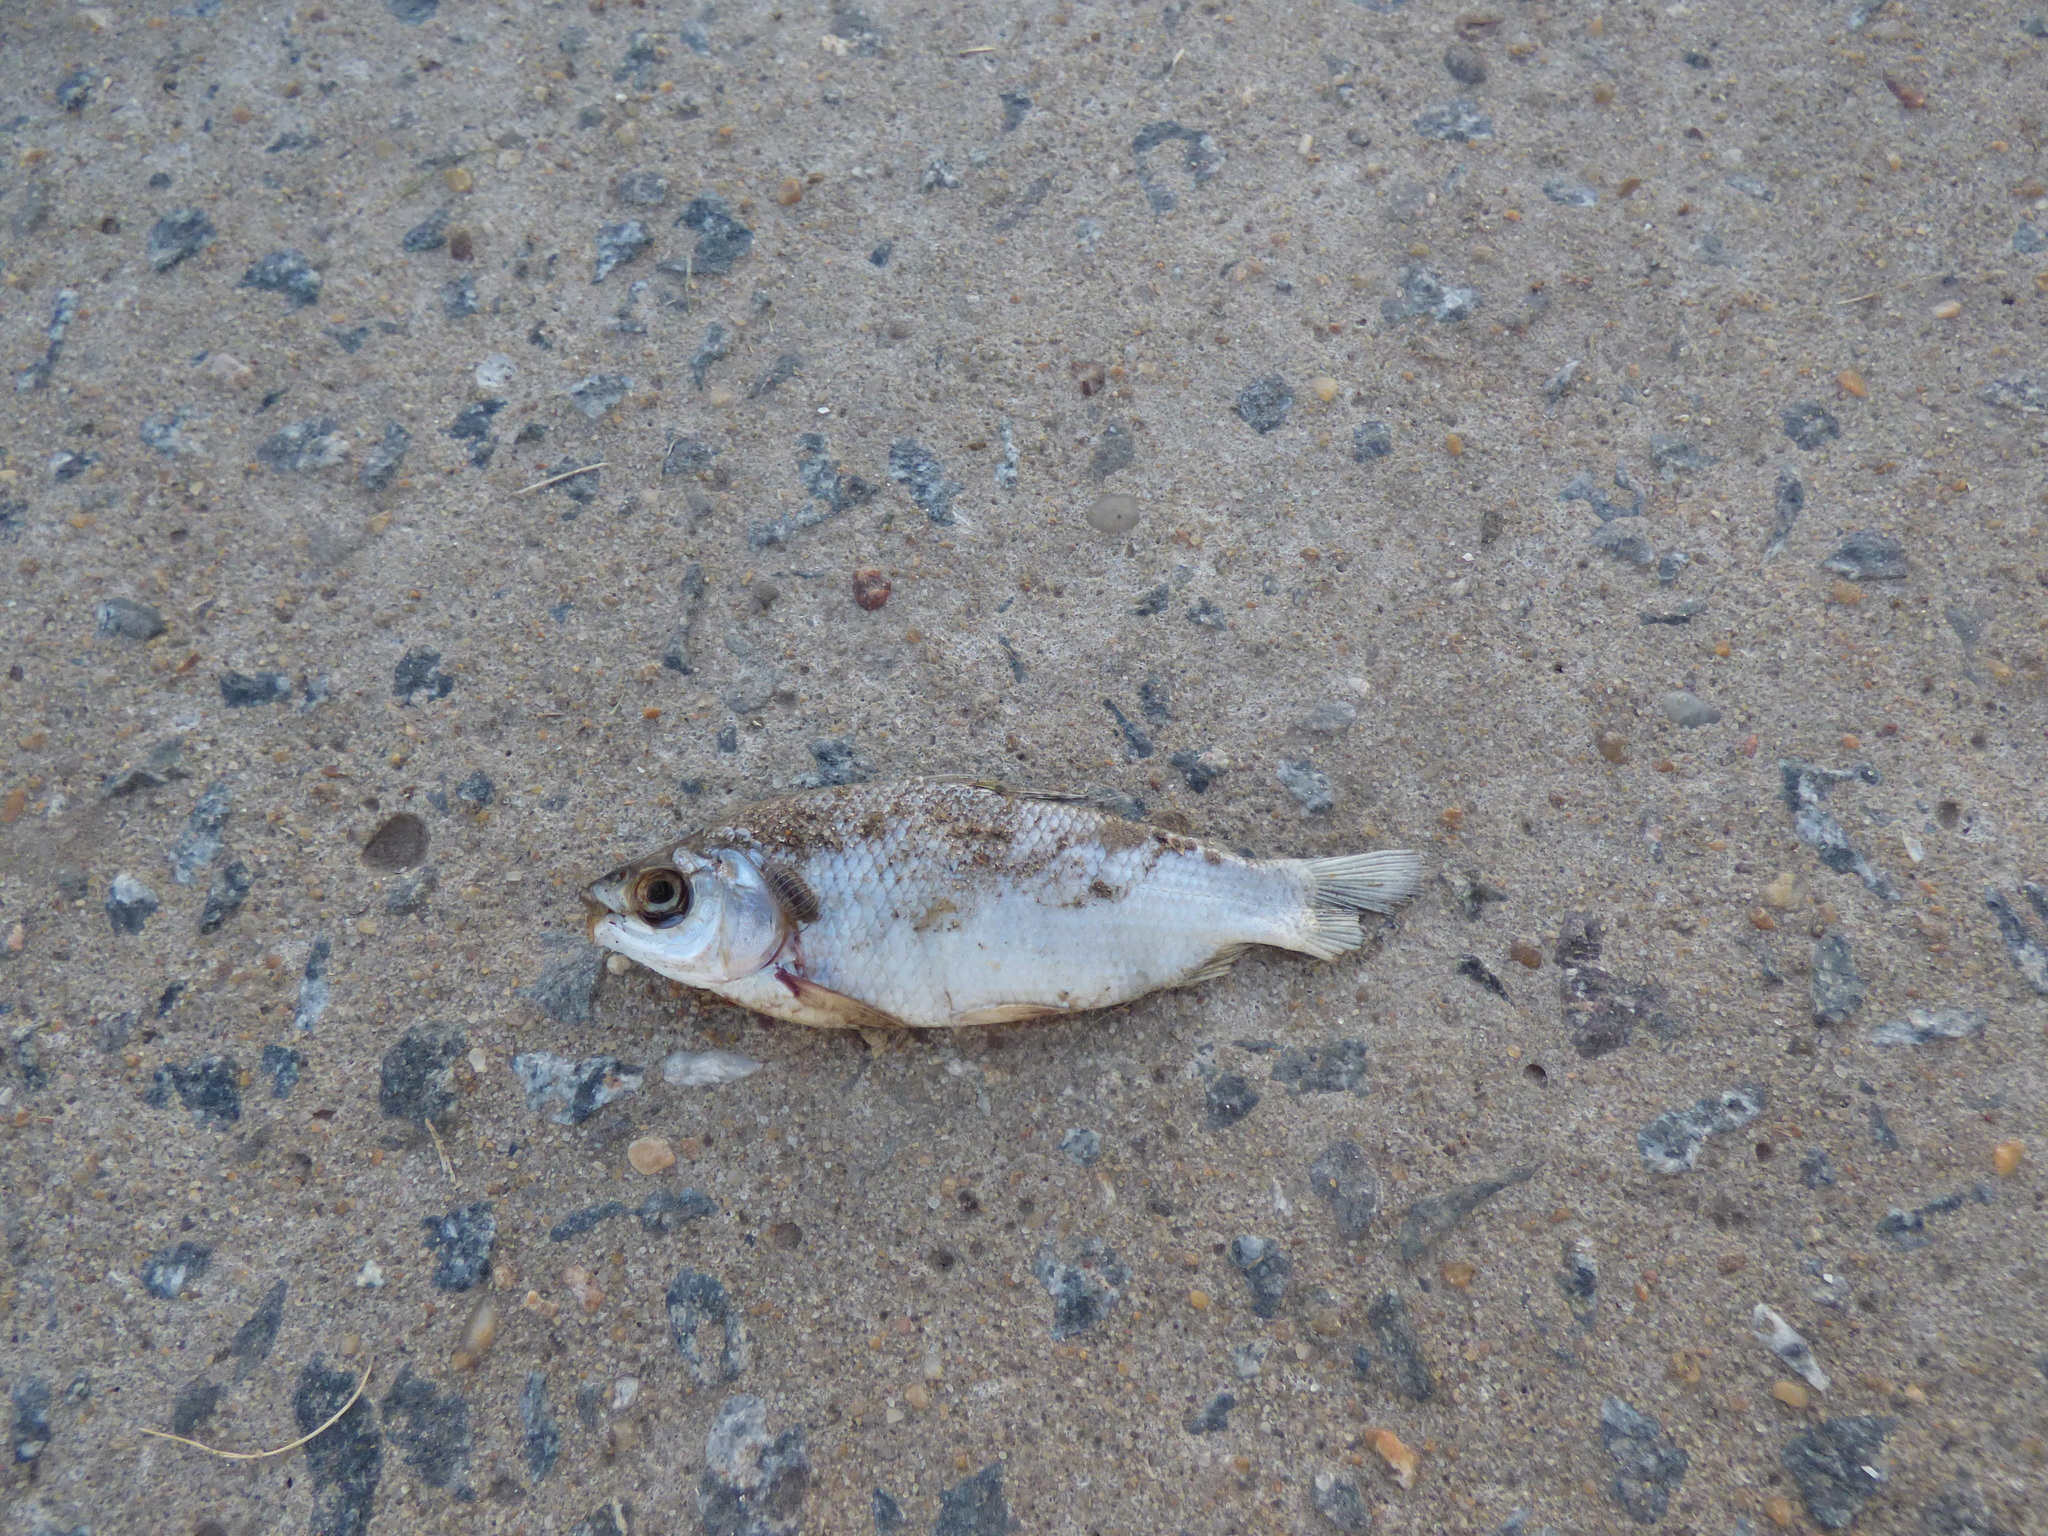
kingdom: Animalia
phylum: Chordata
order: Characiformes
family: Prochilodontidae
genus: Prochilodus
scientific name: Prochilodus lineatus
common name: Curimbata
